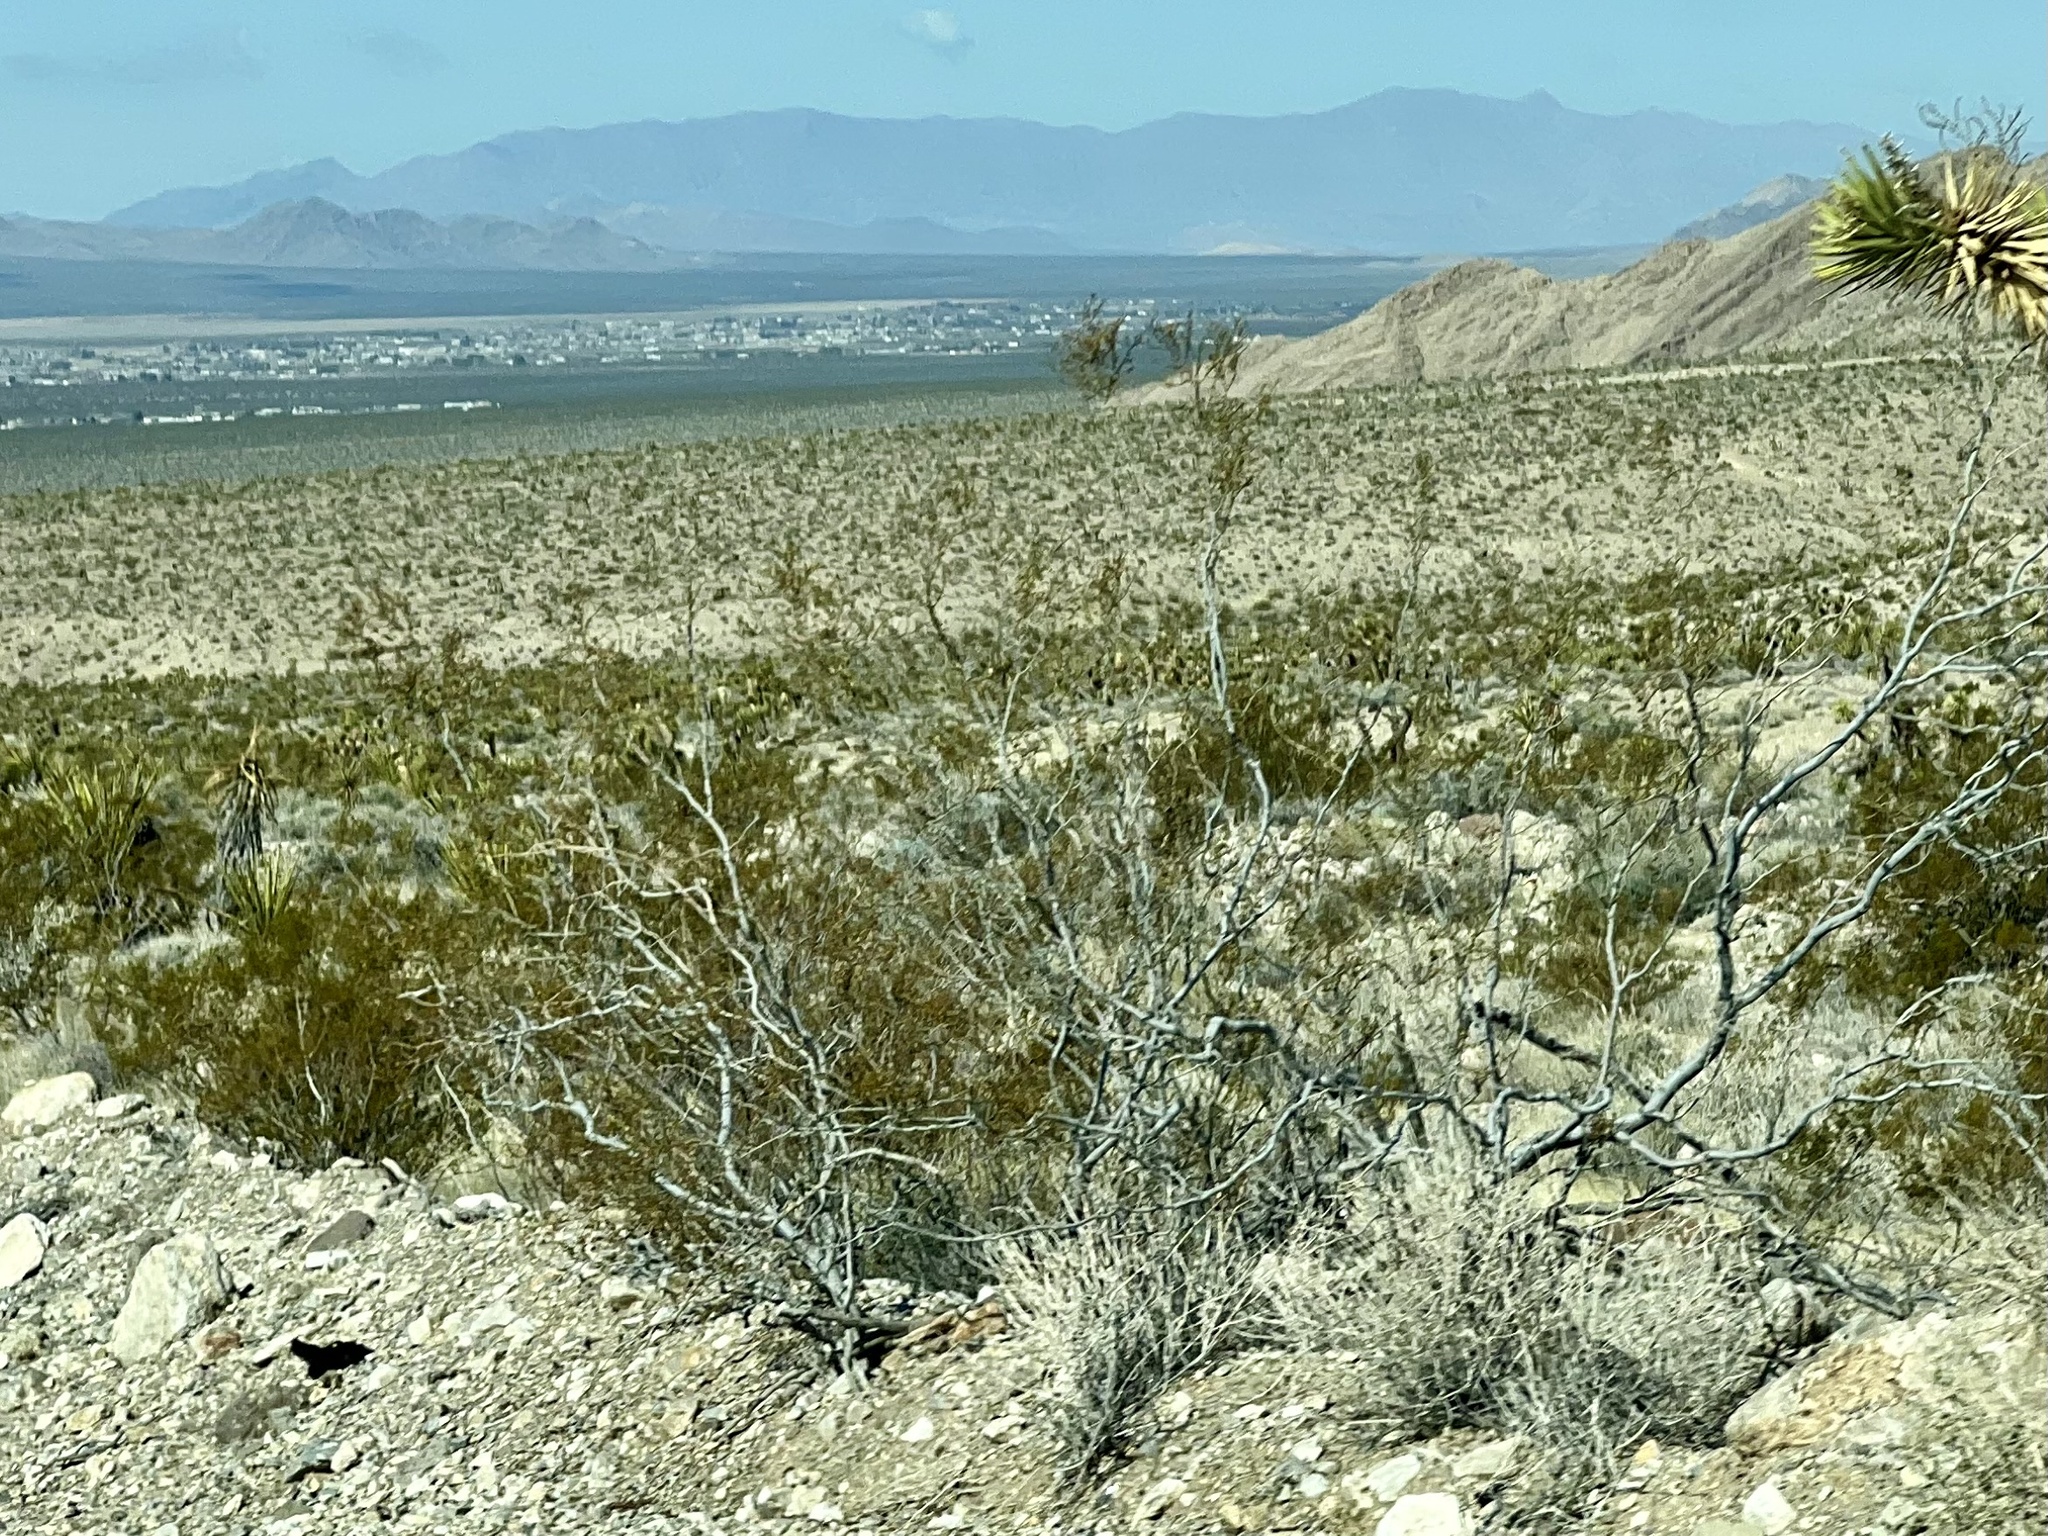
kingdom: Plantae
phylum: Tracheophyta
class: Magnoliopsida
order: Zygophyllales
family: Zygophyllaceae
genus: Larrea
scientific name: Larrea tridentata
